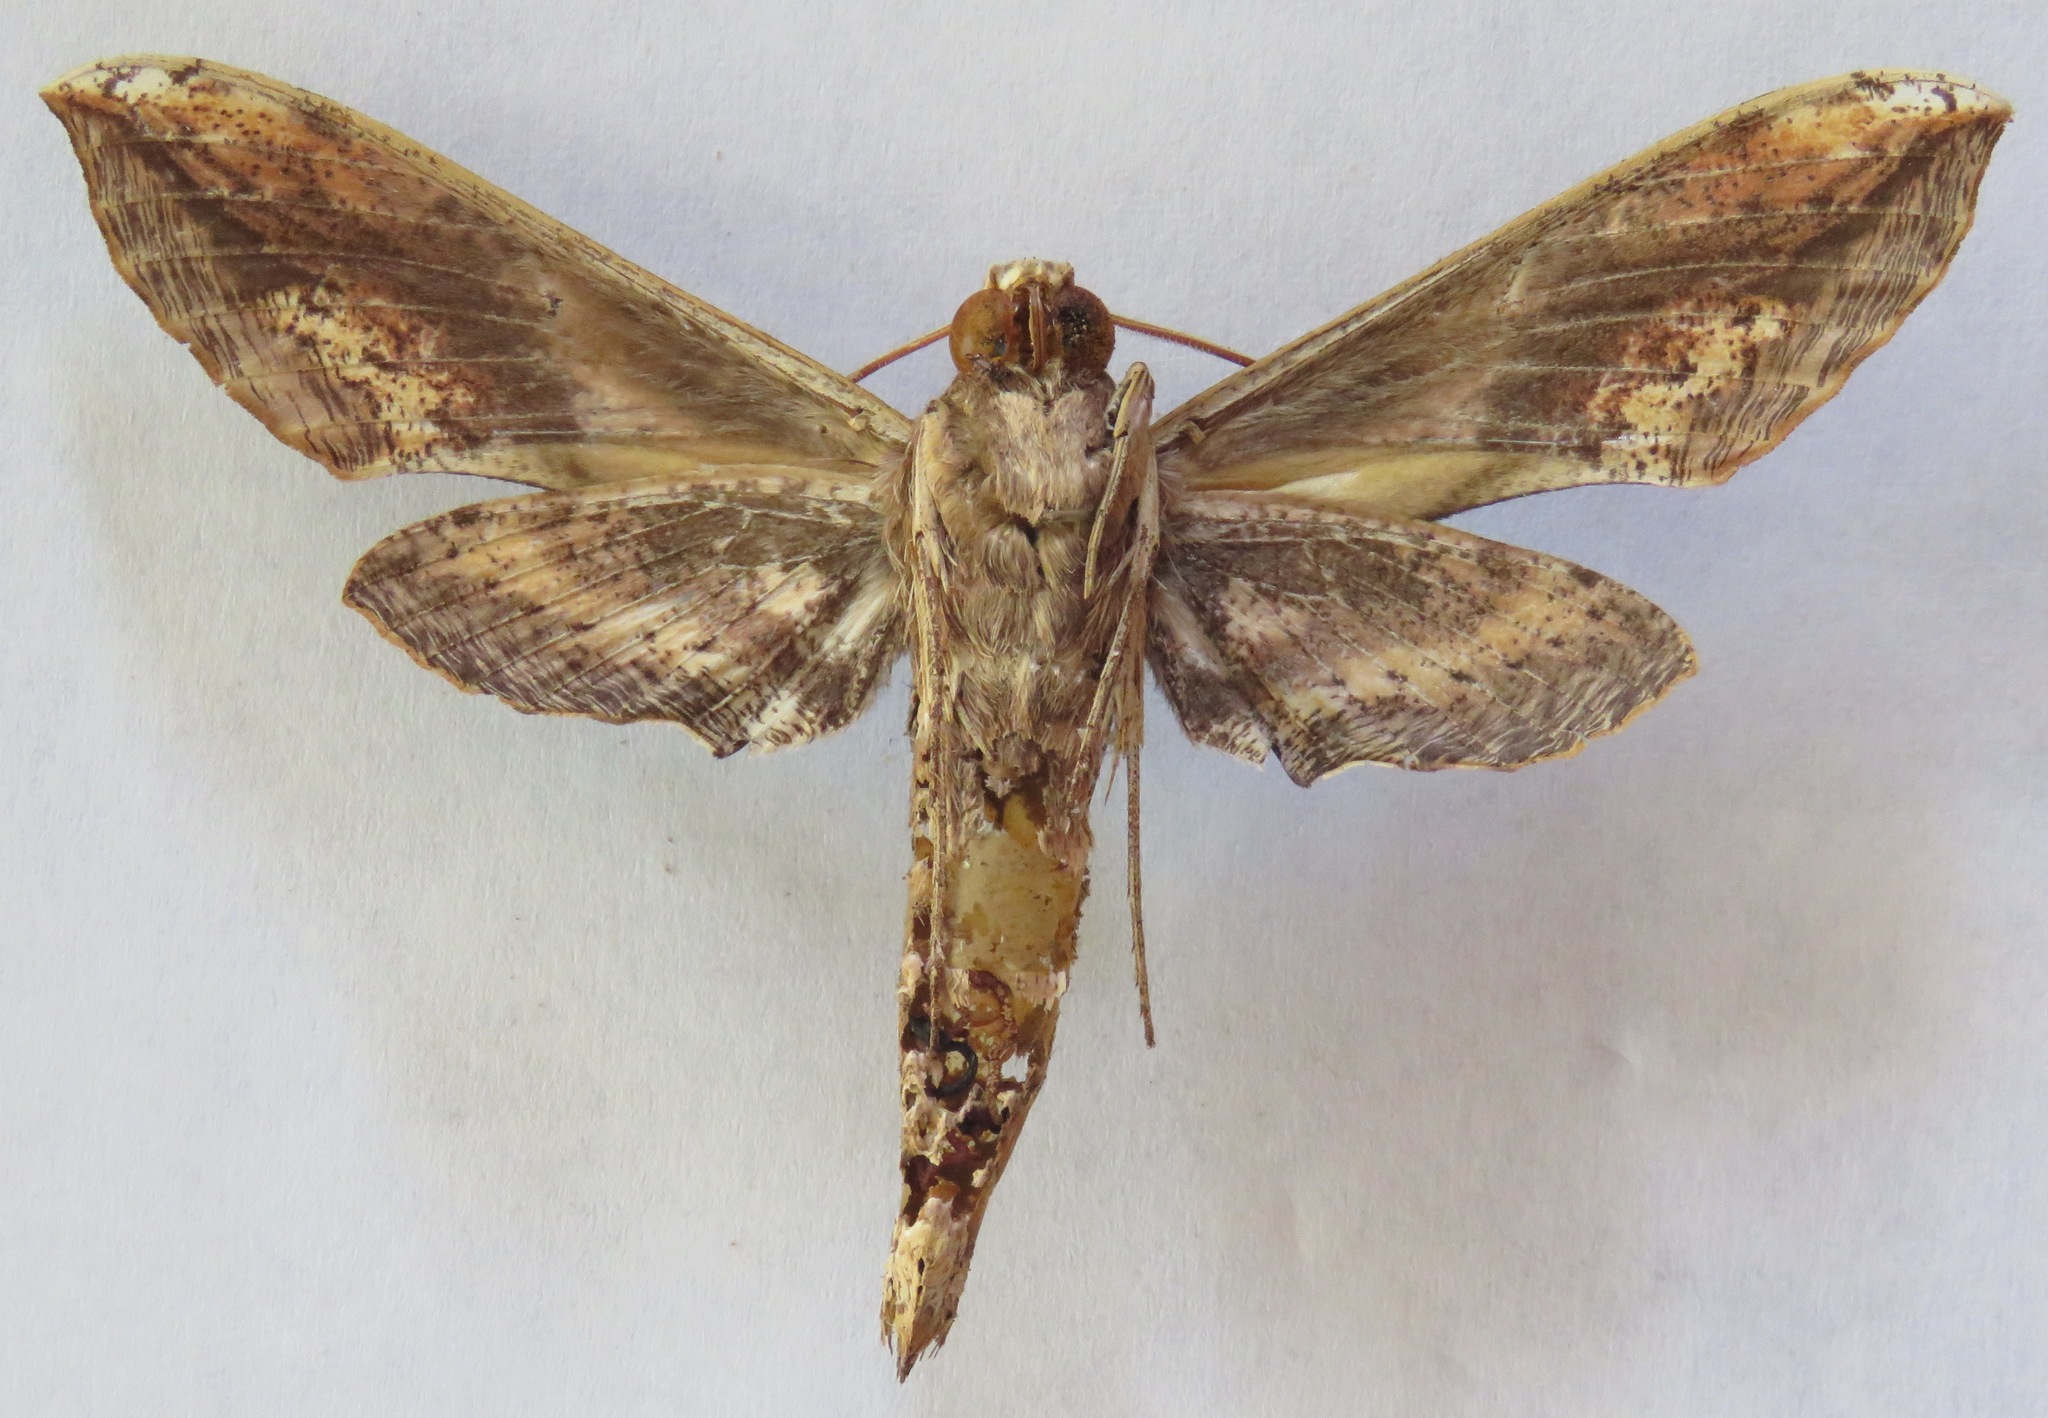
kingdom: Animalia
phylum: Arthropoda
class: Insecta
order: Lepidoptera
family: Sphingidae
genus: Xylophanes
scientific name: Xylophanes ceratomioides
